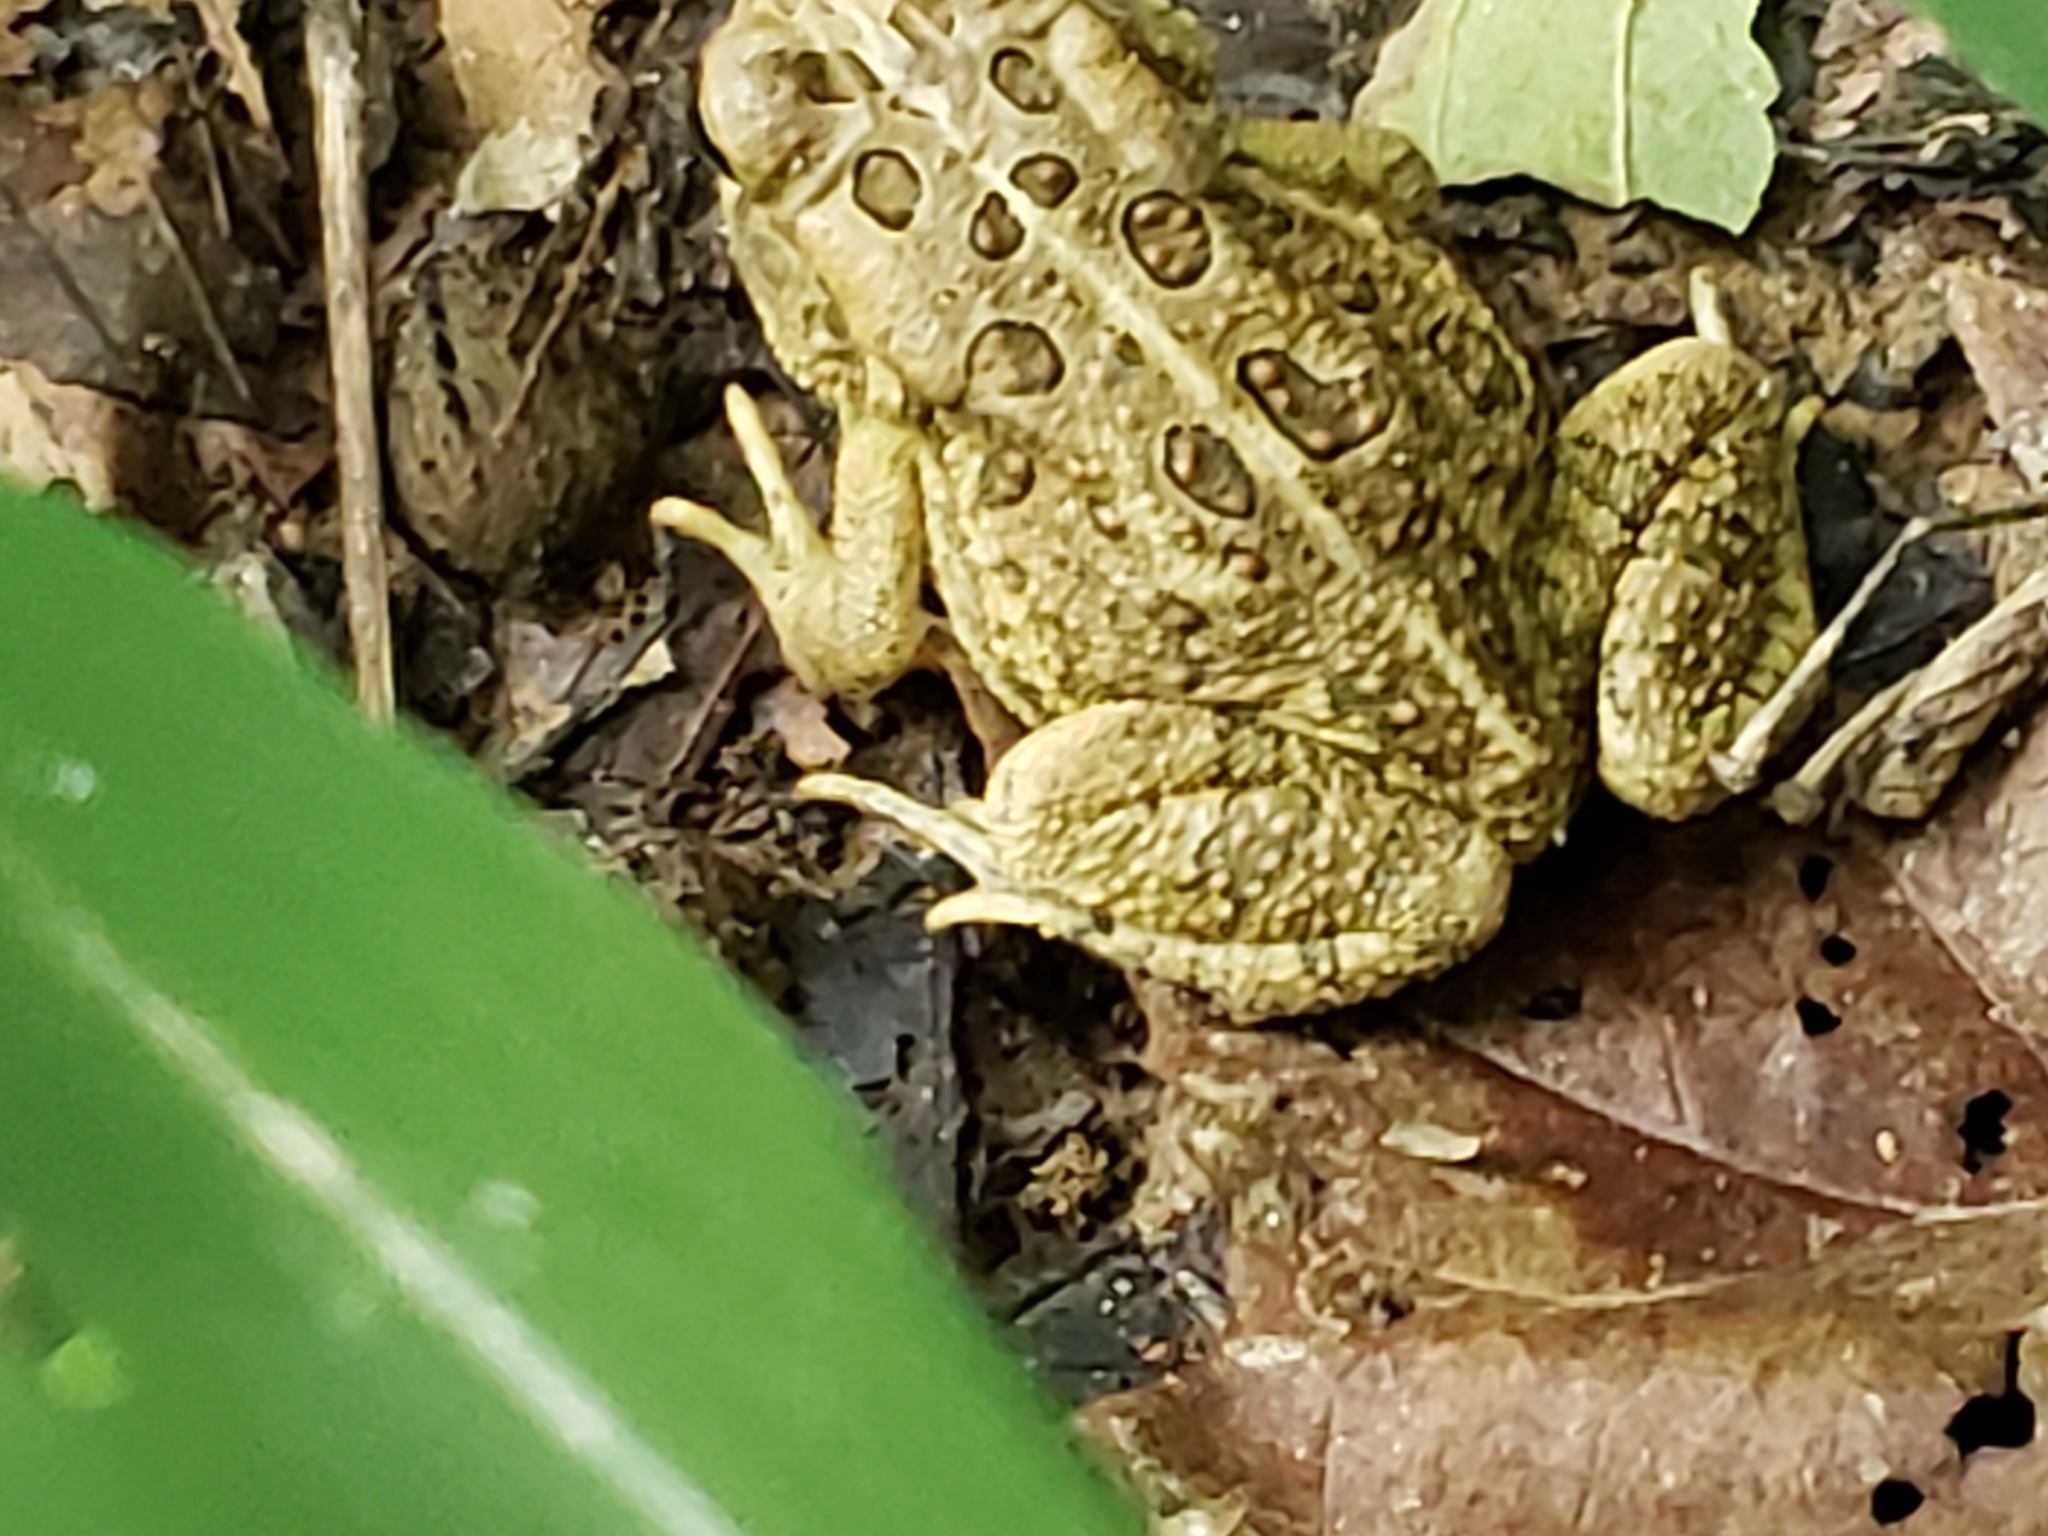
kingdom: Animalia
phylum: Chordata
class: Amphibia
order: Anura
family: Bufonidae
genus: Anaxyrus
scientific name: Anaxyrus fowleri
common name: Fowler's toad
